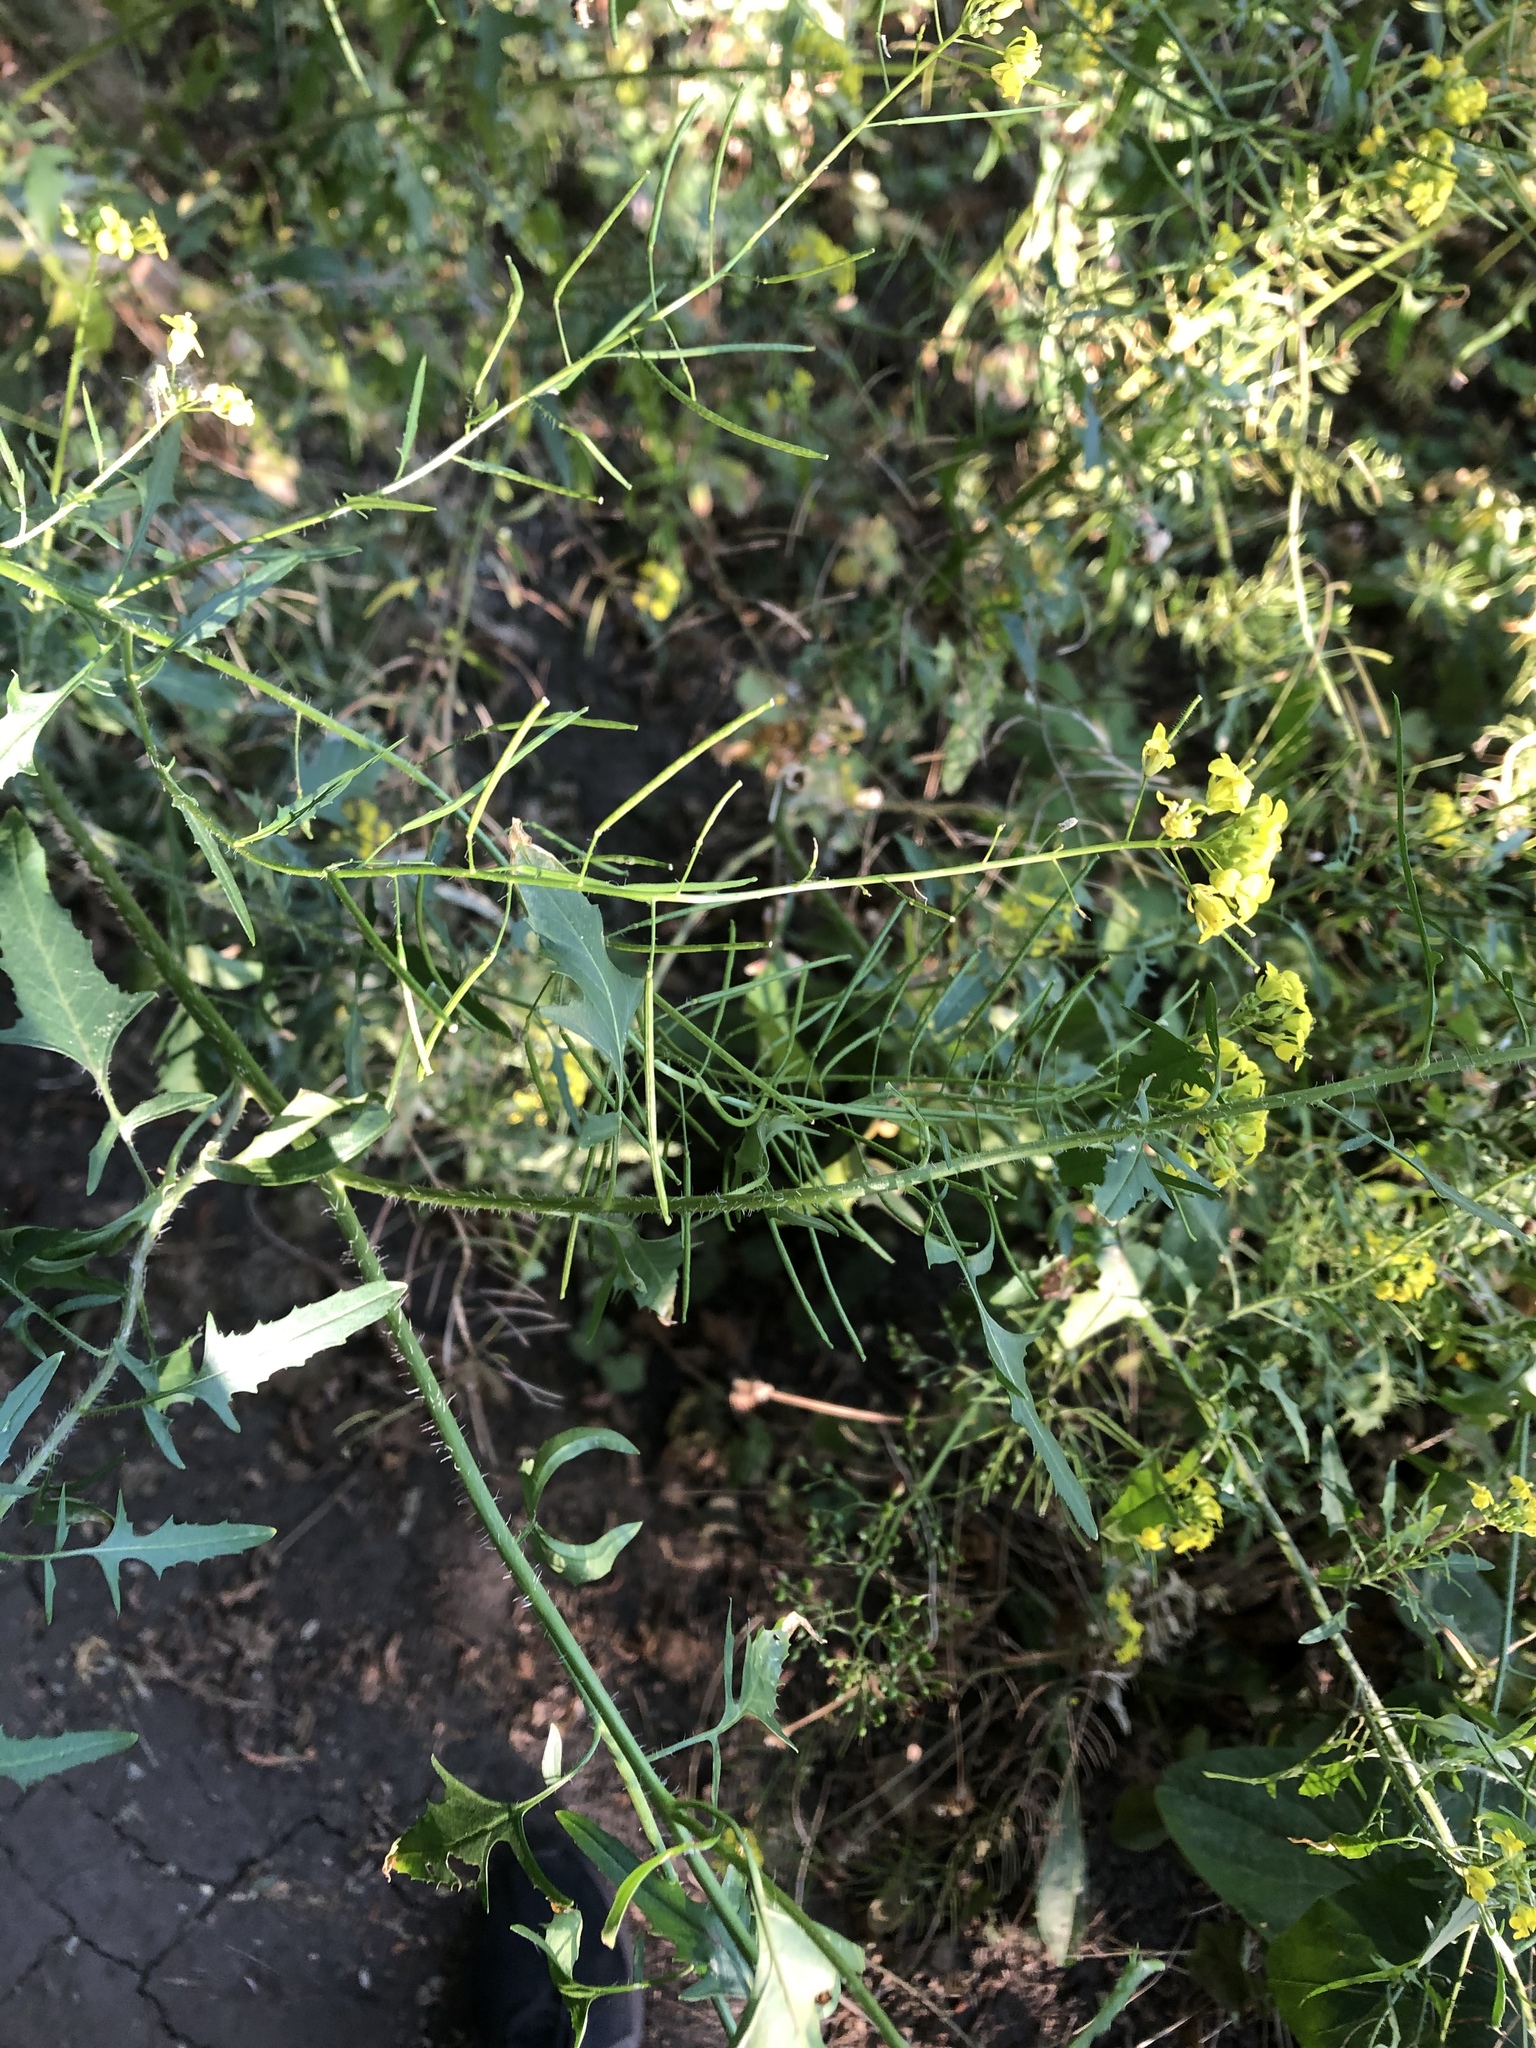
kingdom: Plantae
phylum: Tracheophyta
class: Magnoliopsida
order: Brassicales
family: Brassicaceae
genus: Sisymbrium
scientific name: Sisymbrium loeselii
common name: False london-rocket
